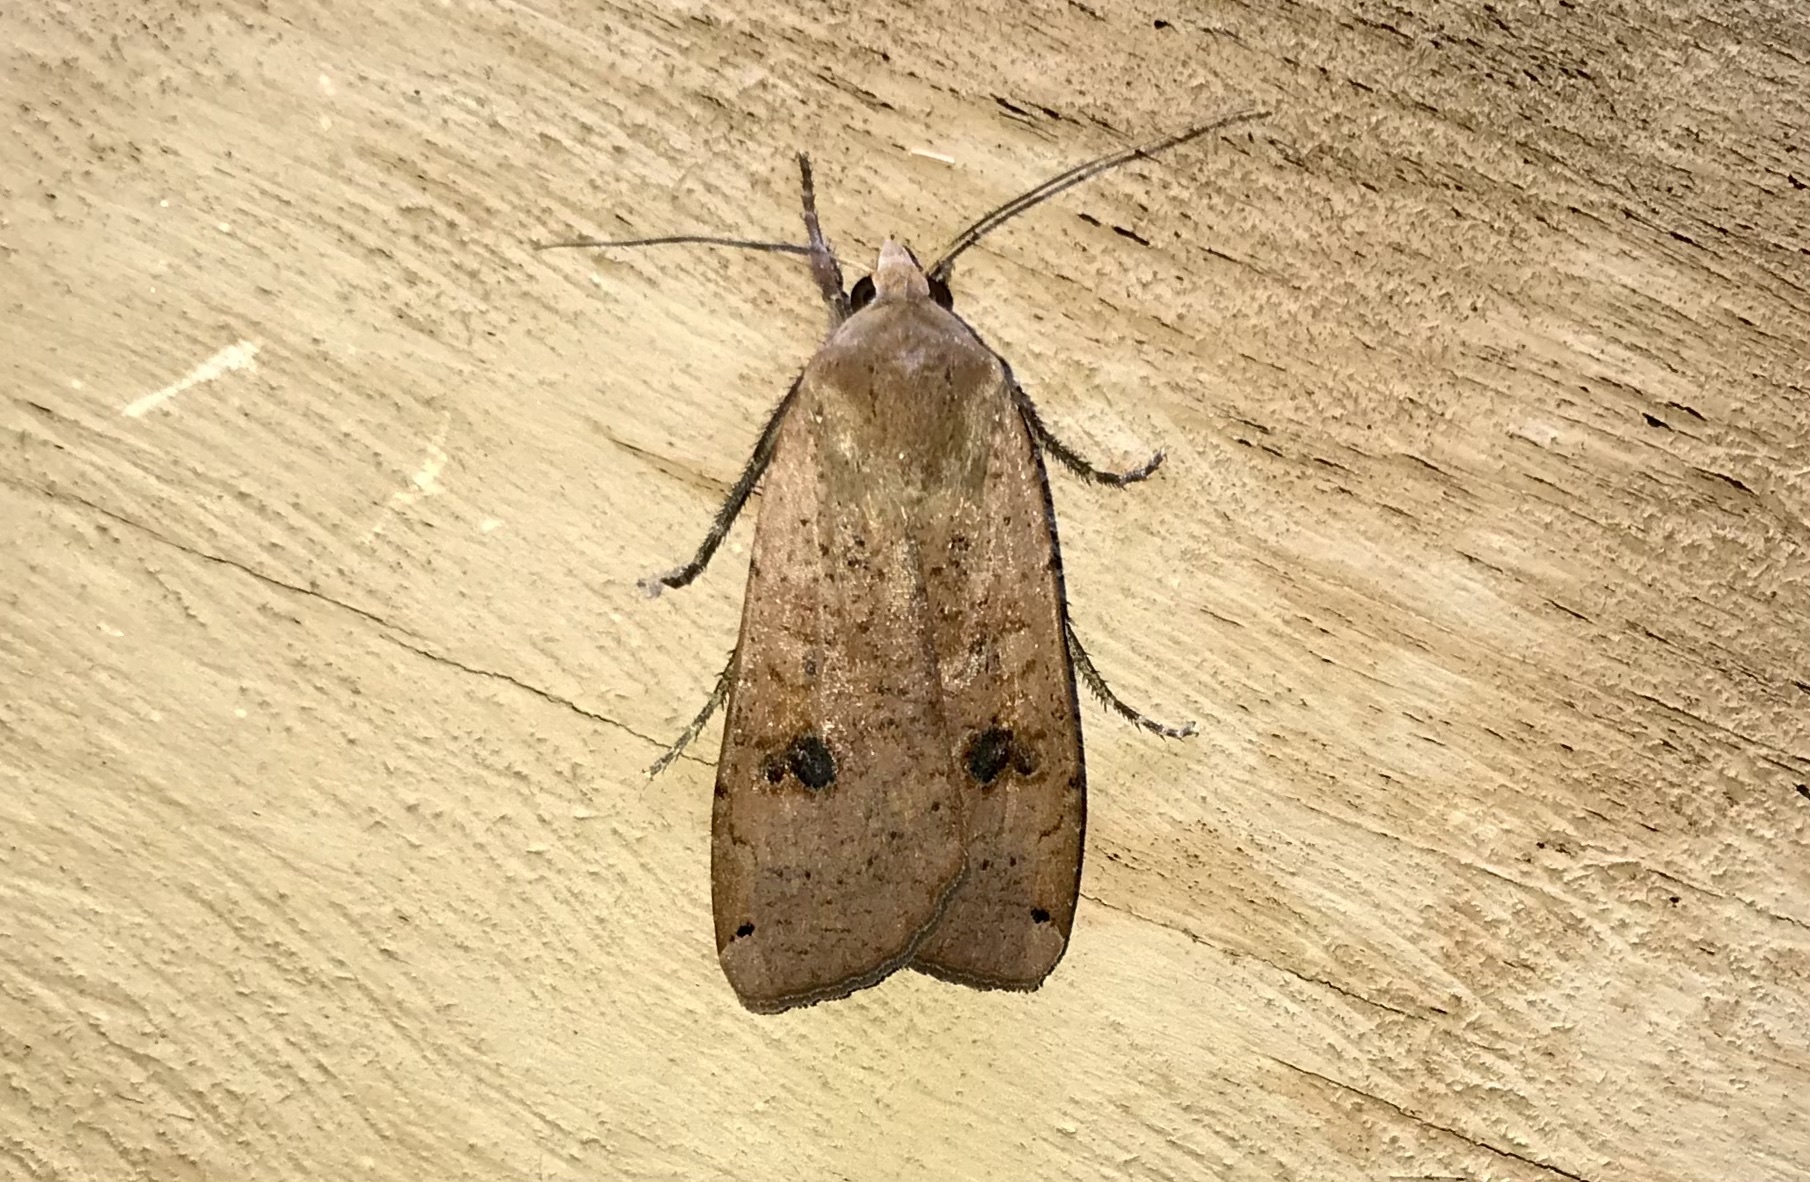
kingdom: Animalia
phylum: Arthropoda
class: Insecta
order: Lepidoptera
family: Noctuidae
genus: Noctua
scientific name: Noctua pronuba
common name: Large yellow underwing
